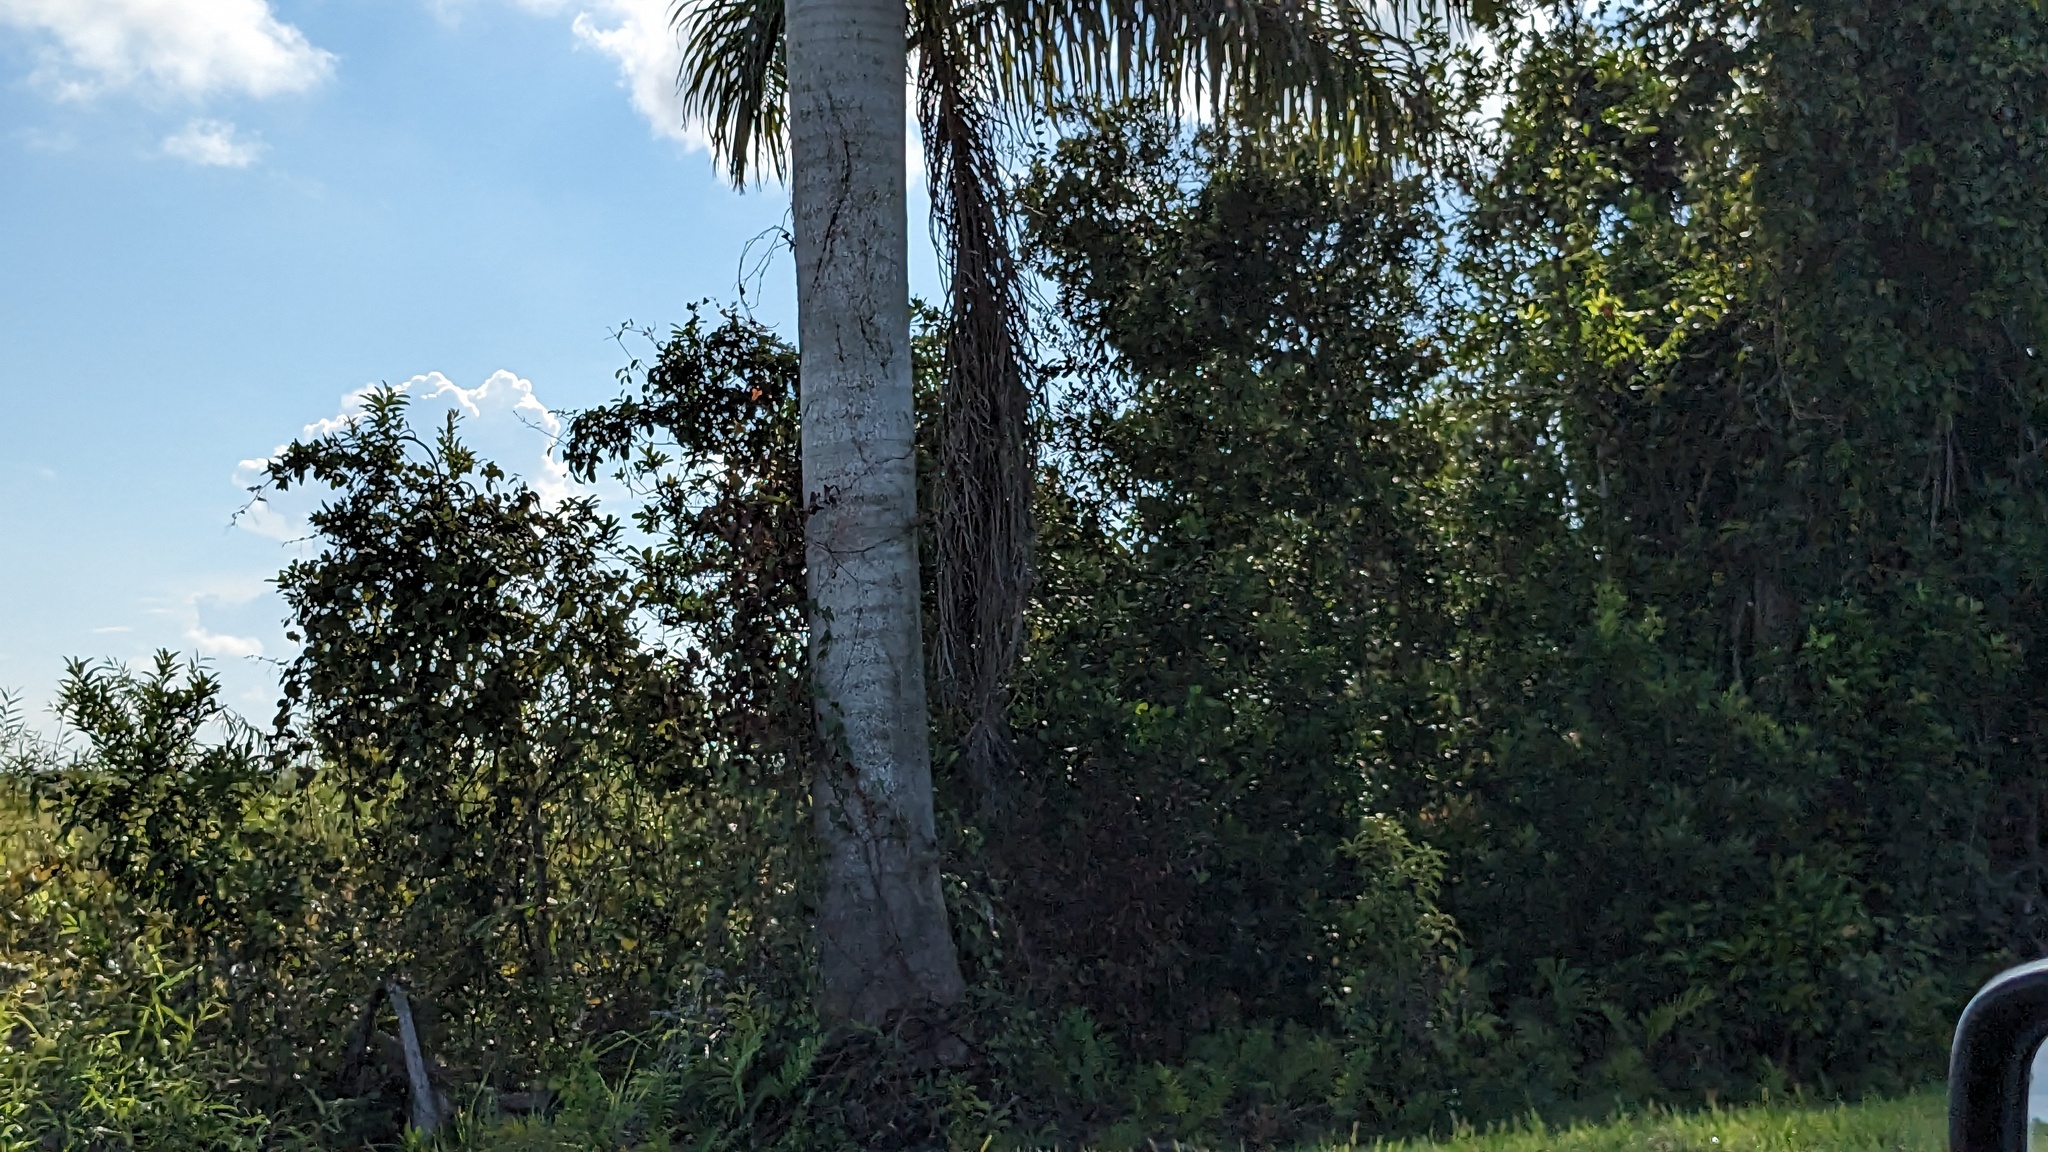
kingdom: Plantae
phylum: Tracheophyta
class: Liliopsida
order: Arecales
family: Arecaceae
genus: Roystonea
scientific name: Roystonea regia
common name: Florida royal palm
